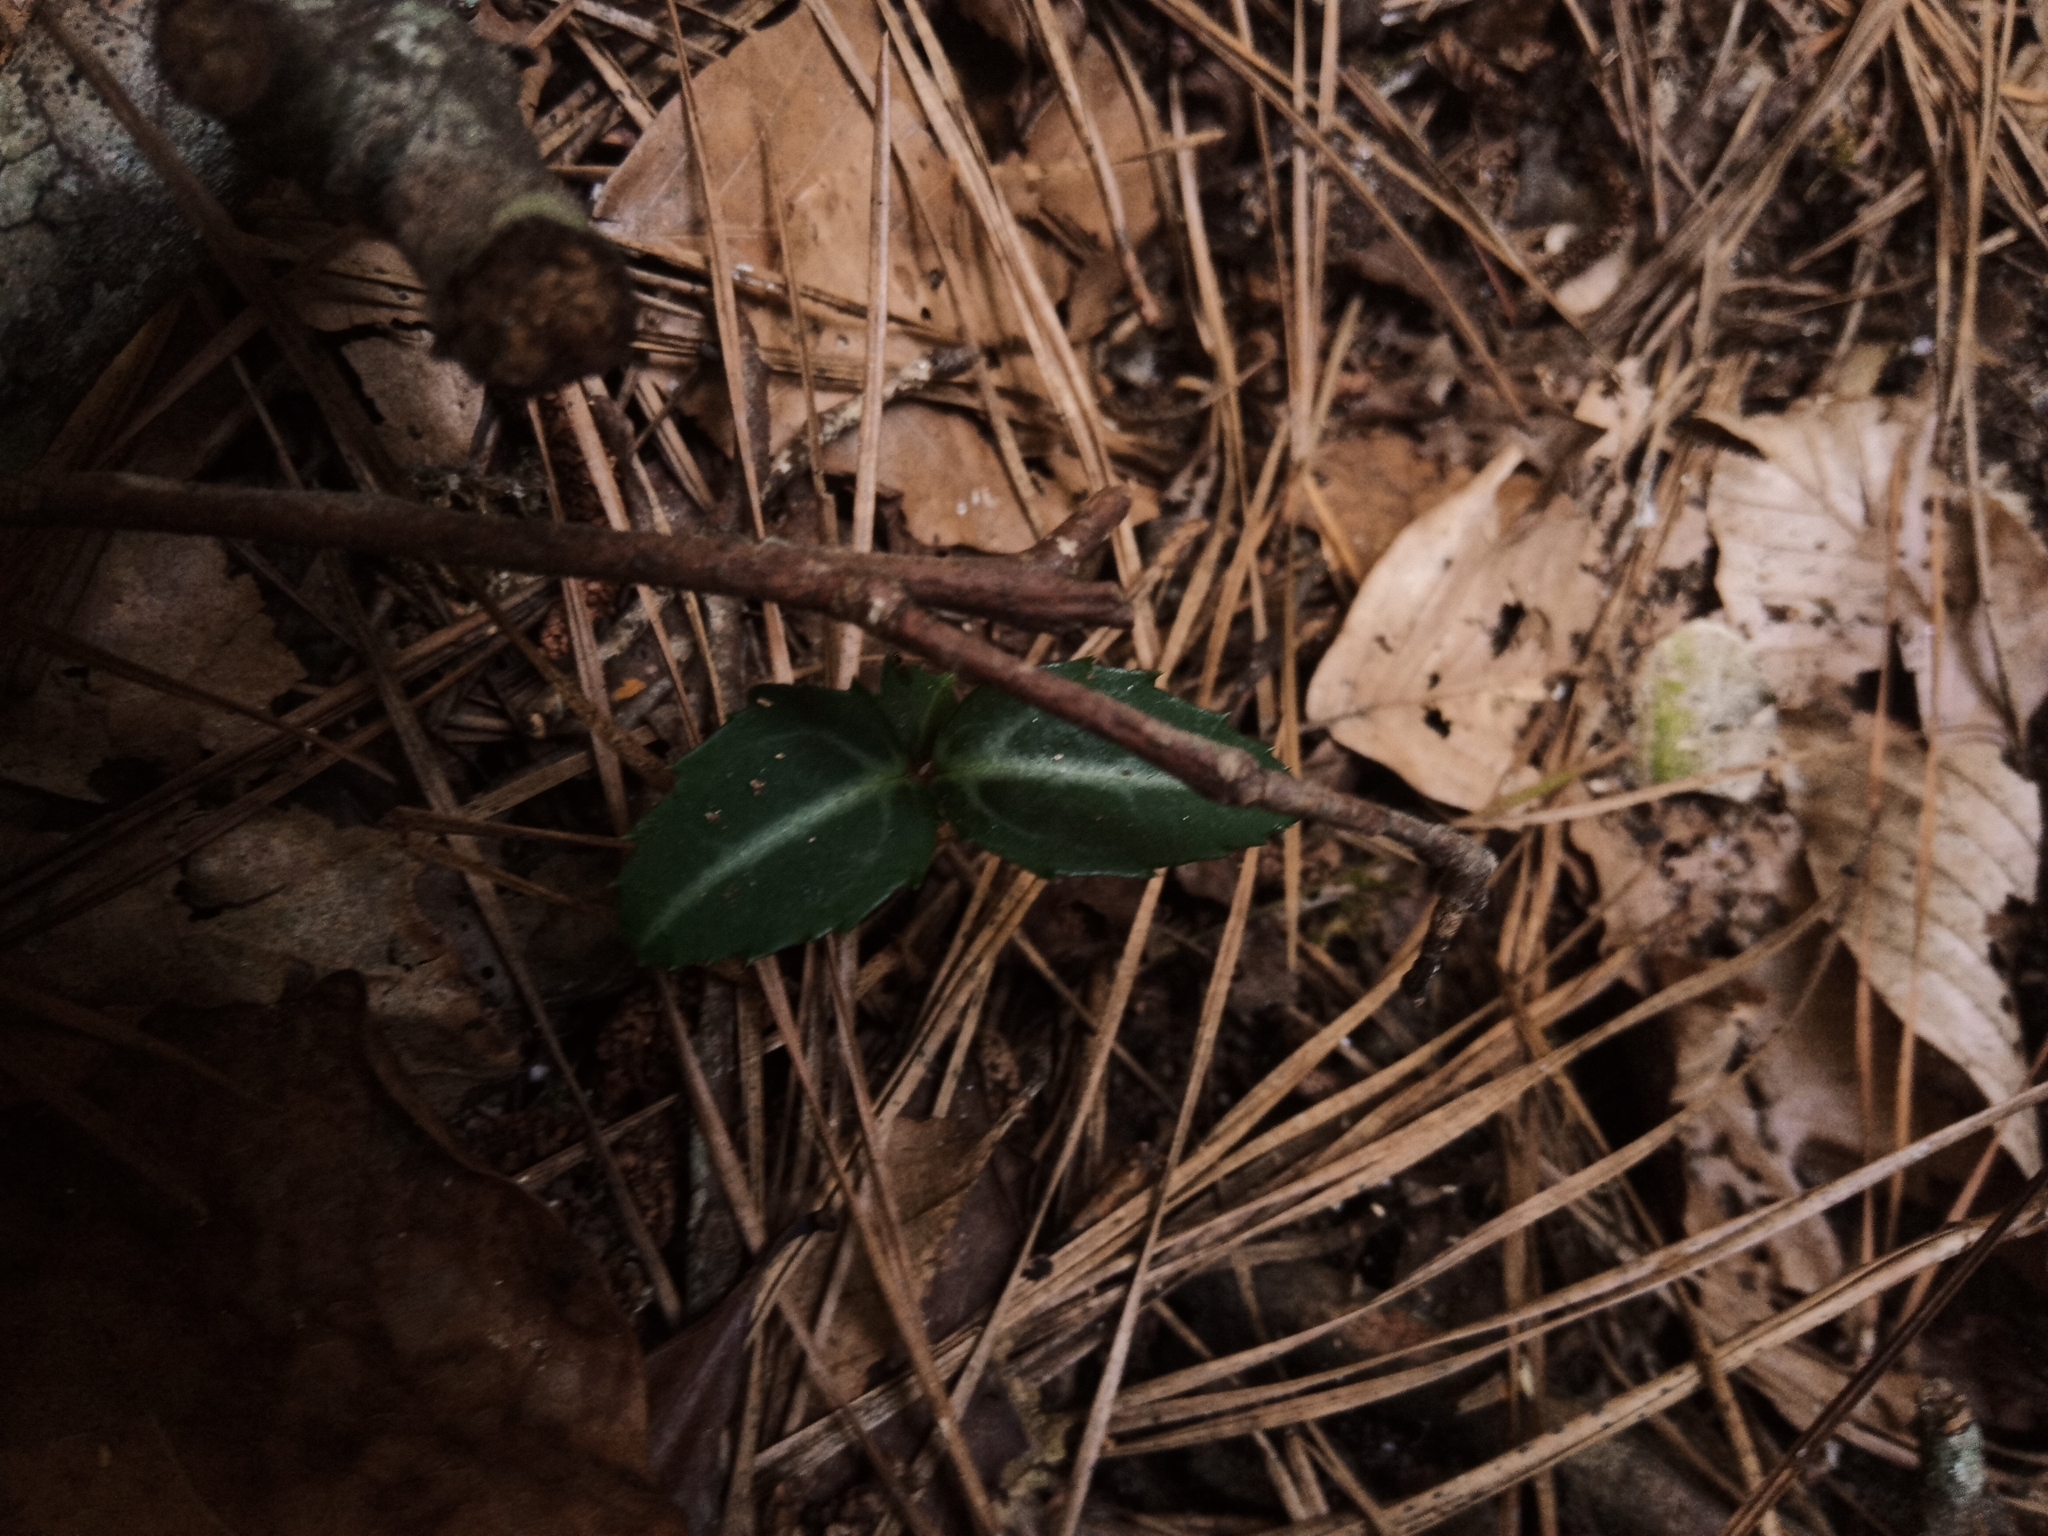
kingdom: Plantae
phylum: Tracheophyta
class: Magnoliopsida
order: Ericales
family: Ericaceae
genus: Chimaphila
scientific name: Chimaphila maculata
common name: Spotted pipsissewa
